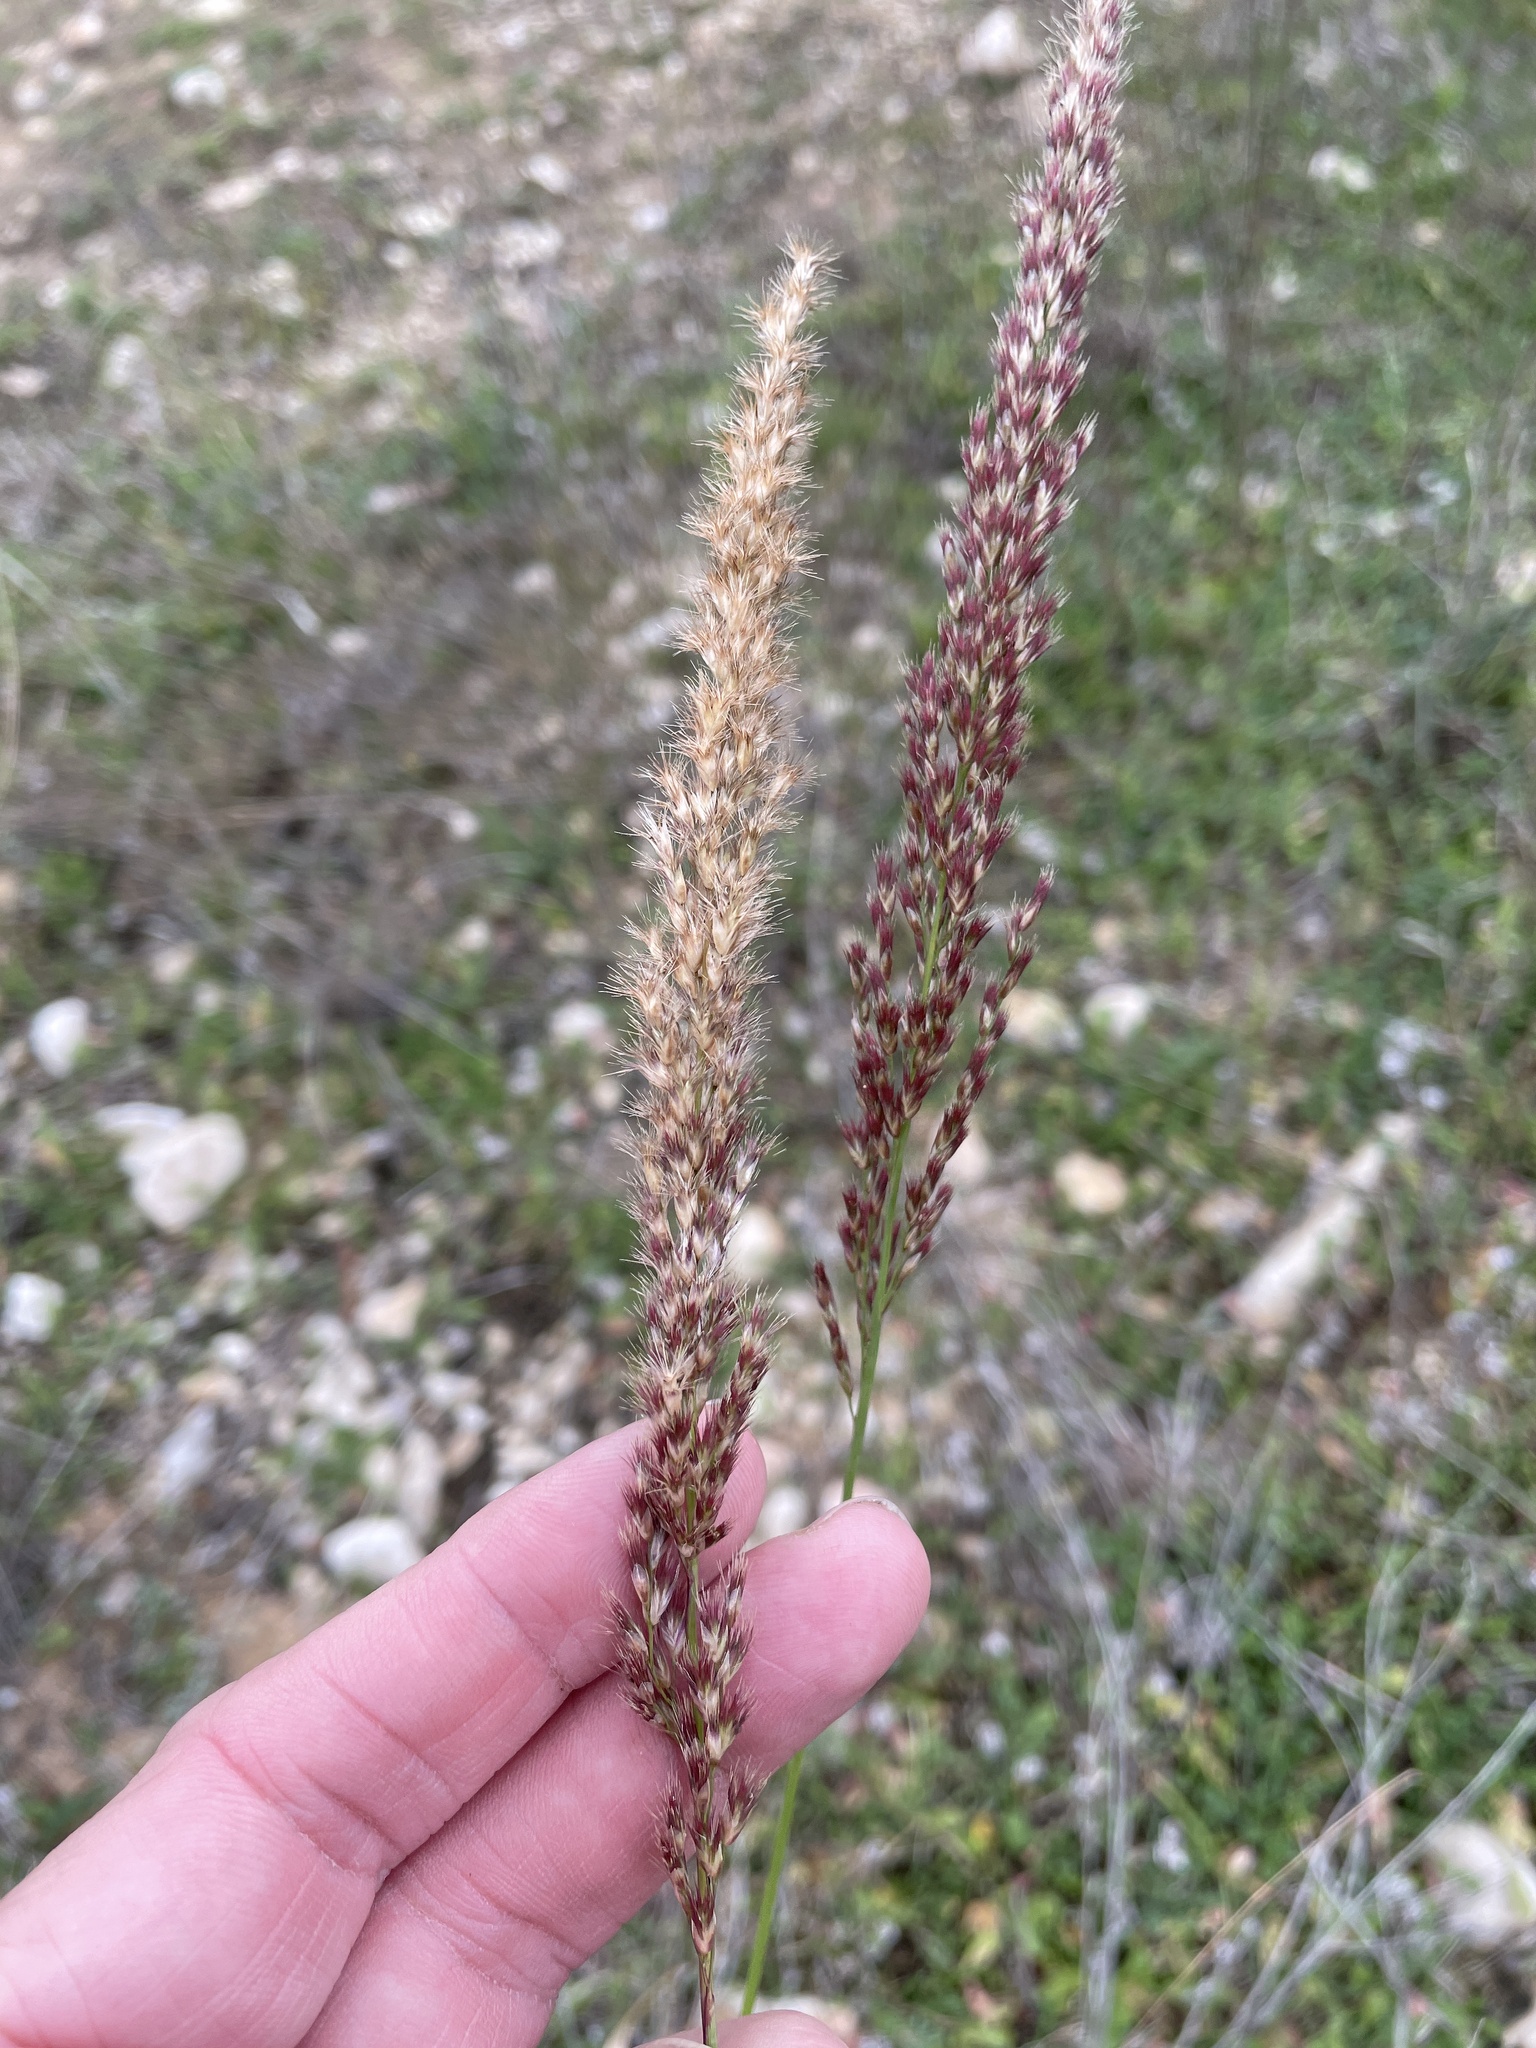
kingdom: Plantae
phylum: Tracheophyta
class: Liliopsida
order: Poales
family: Poaceae
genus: Pappophorum
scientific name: Pappophorum bicolor
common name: Pink pappus grass
